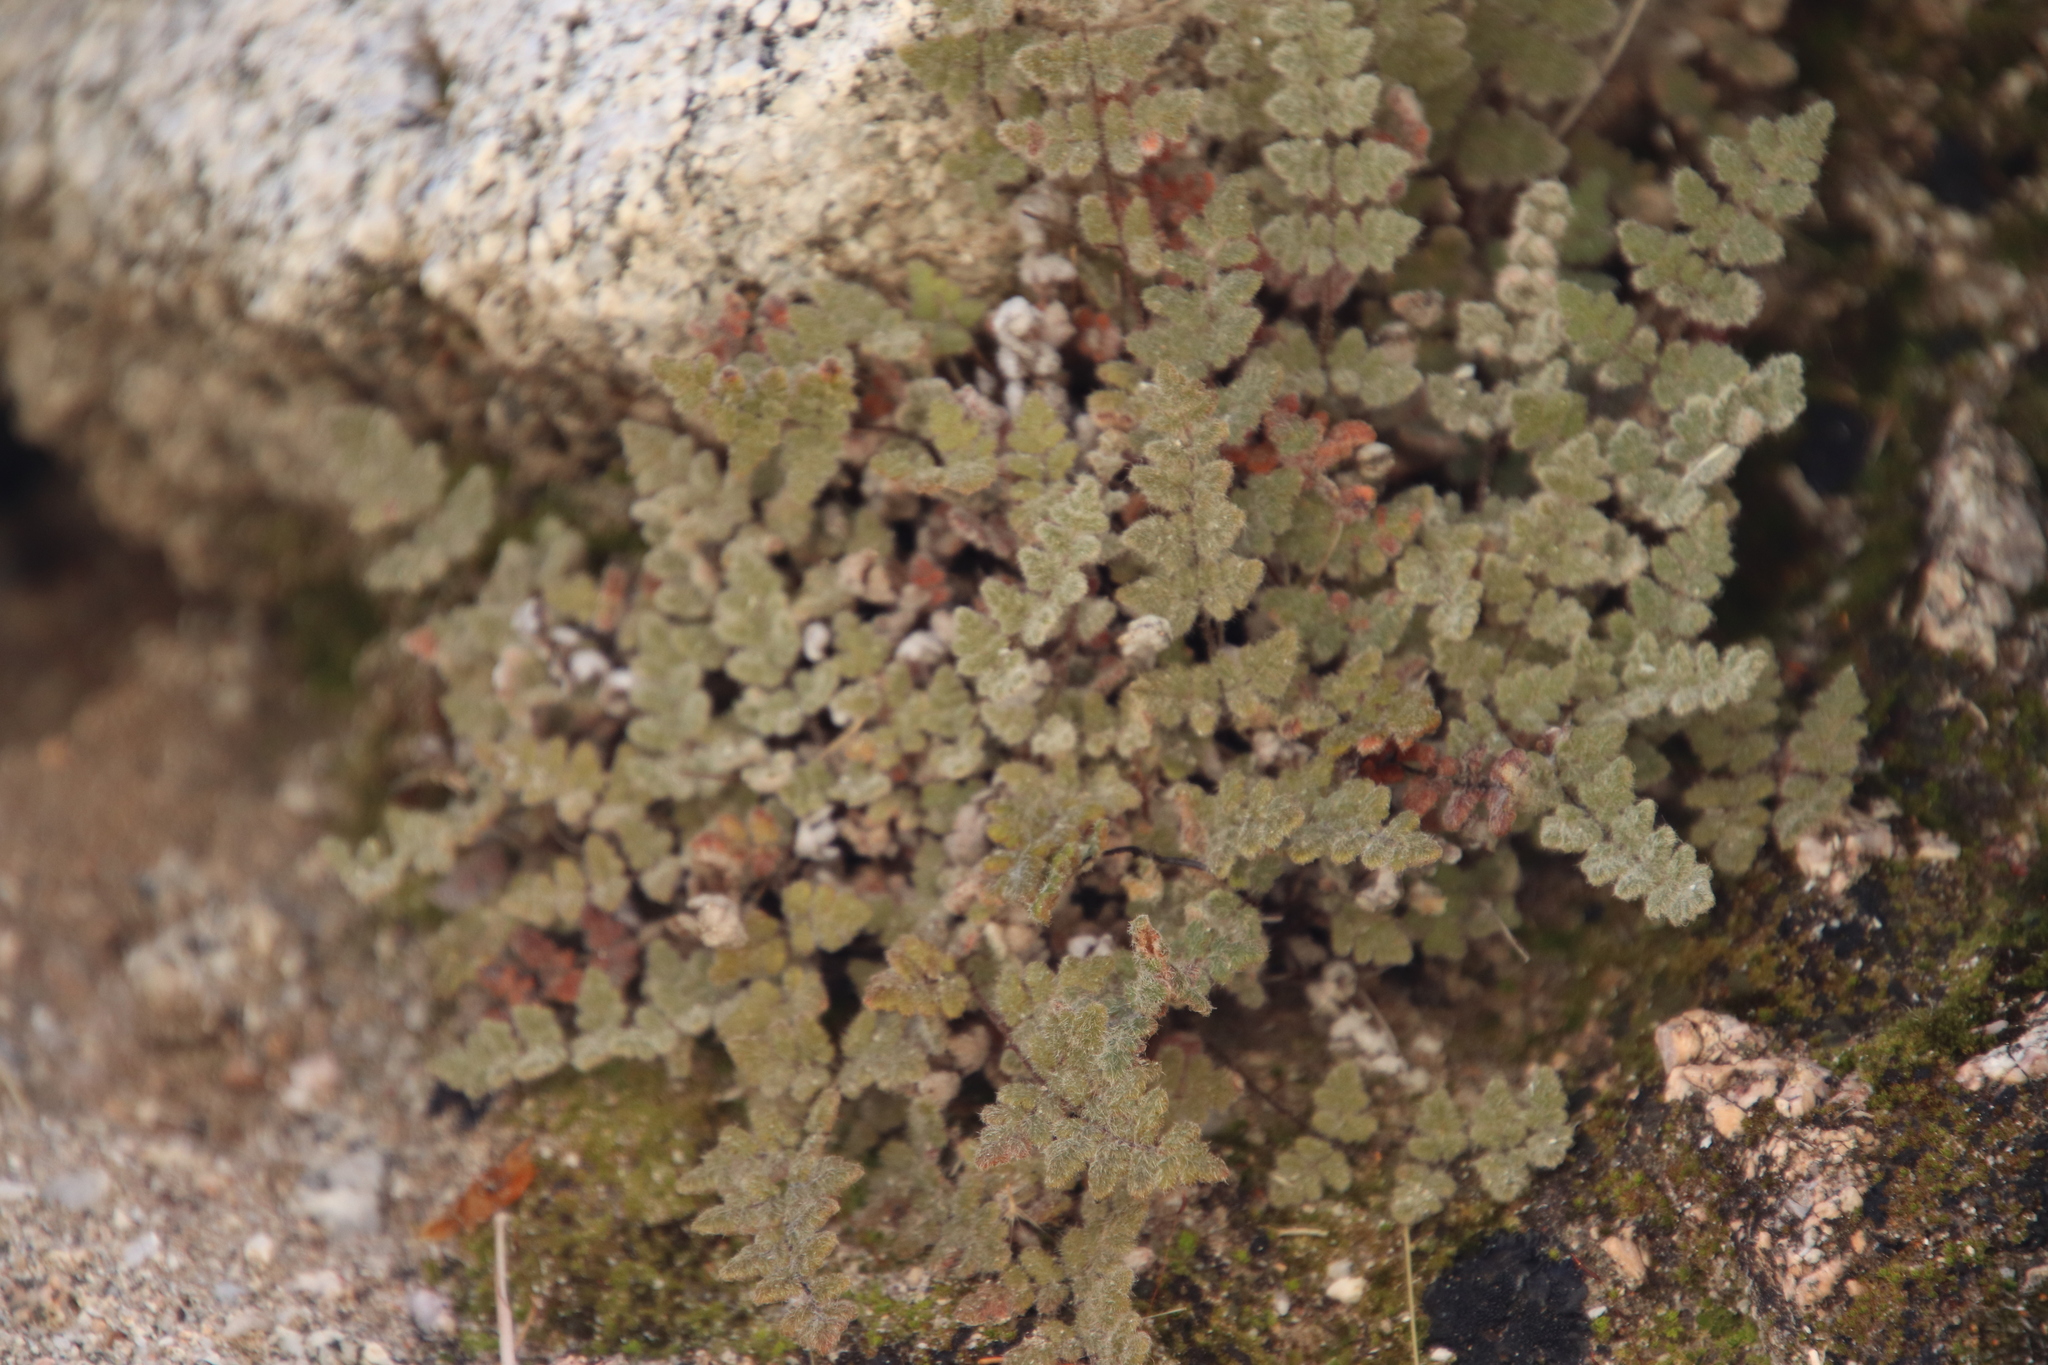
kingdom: Plantae
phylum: Tracheophyta
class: Polypodiopsida
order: Polypodiales
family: Pteridaceae
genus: Myriopteris
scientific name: Myriopteris parryi
